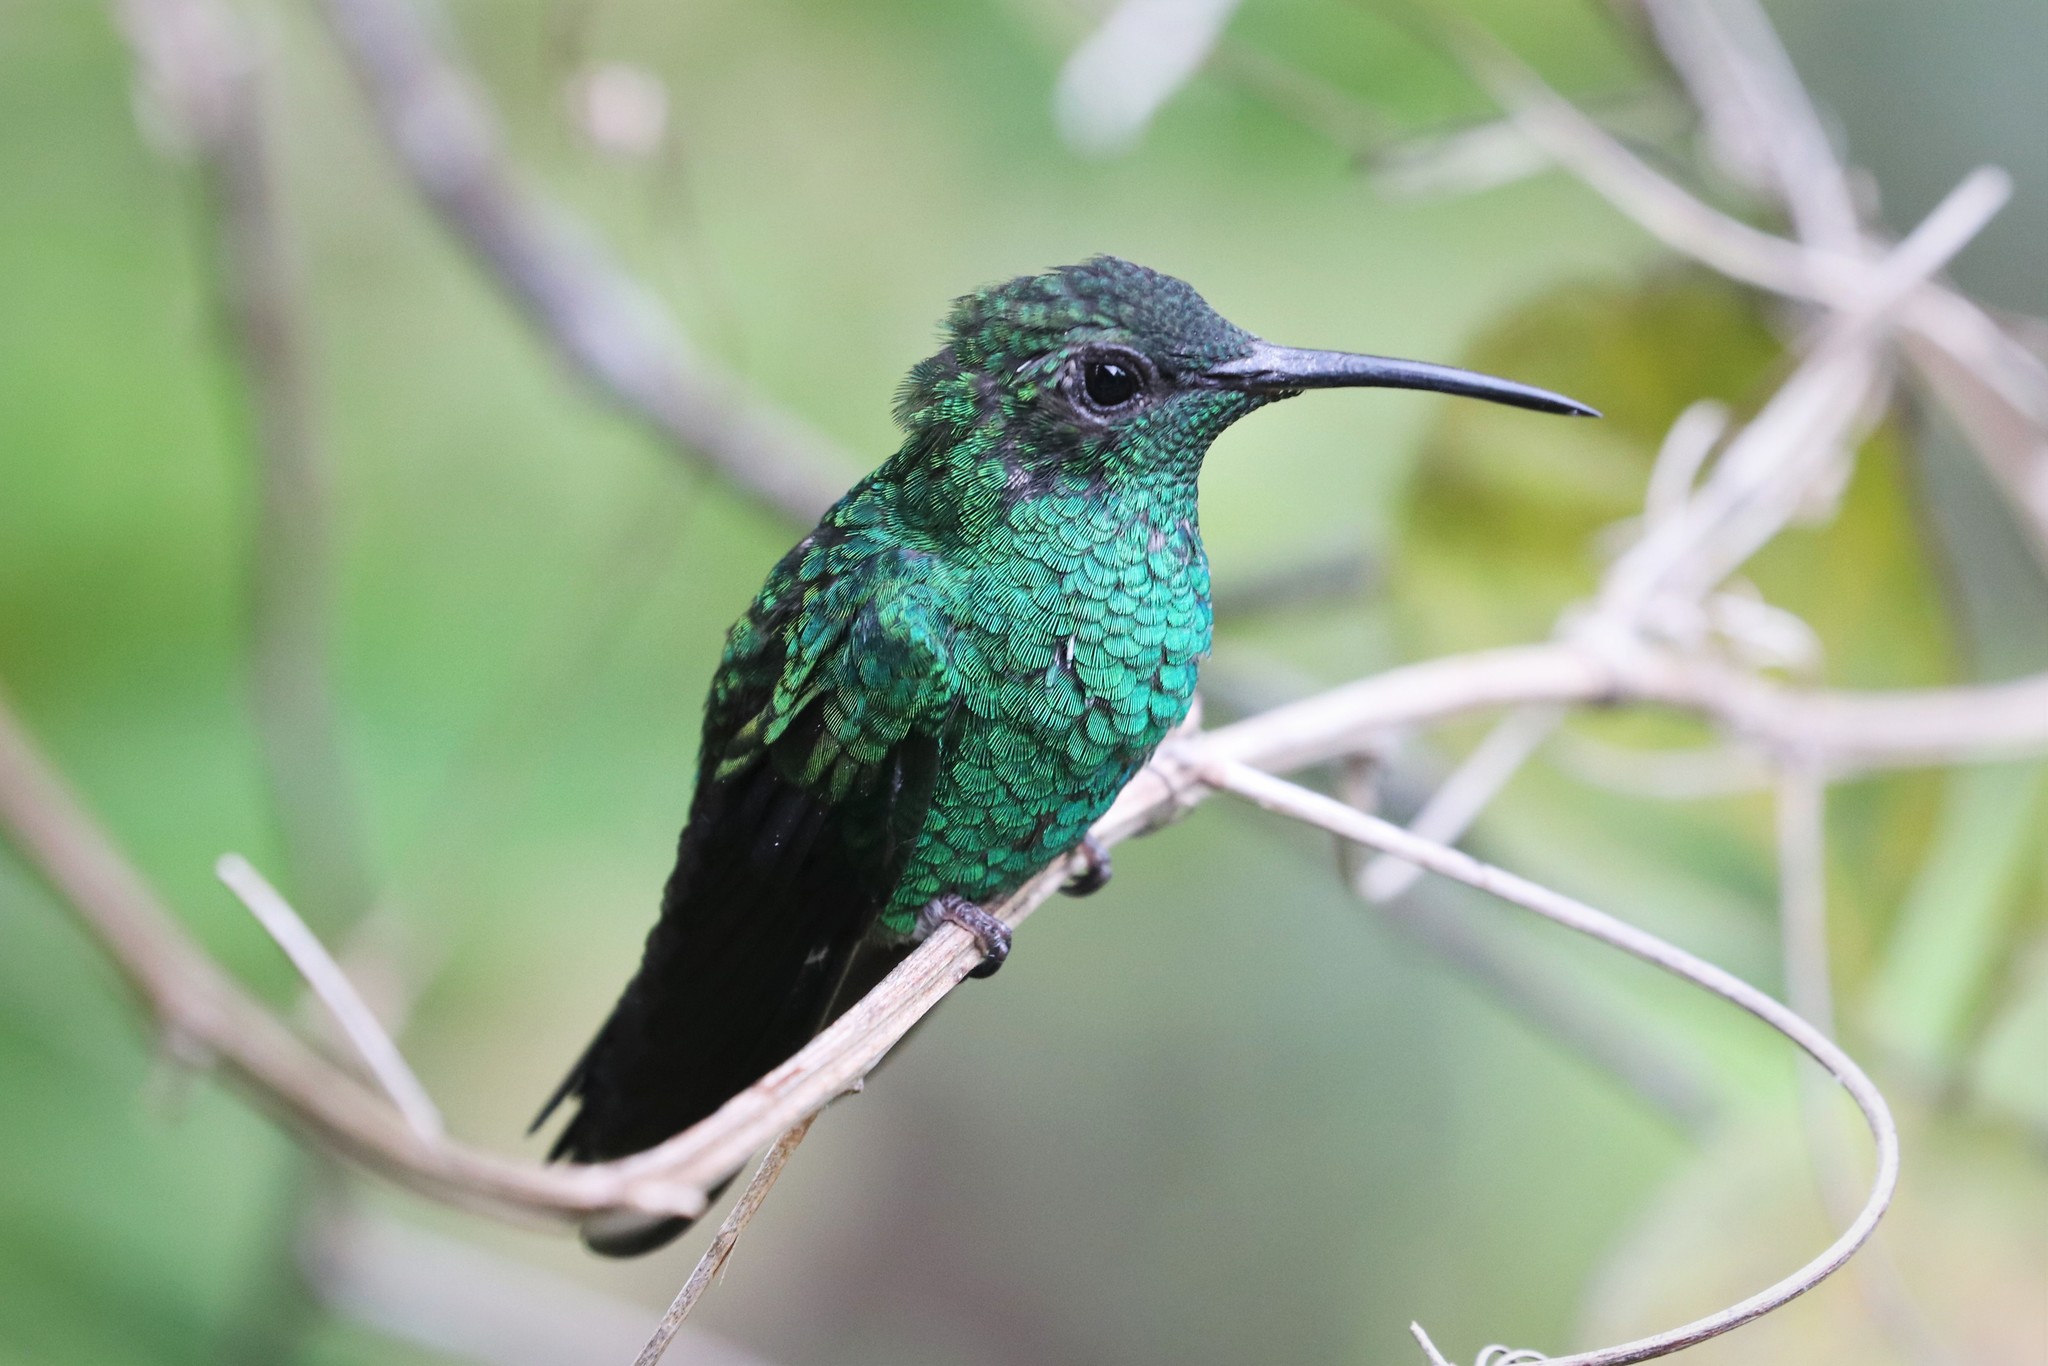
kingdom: Animalia
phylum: Chordata
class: Aves
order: Apodiformes
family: Trochilidae
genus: Chalybura
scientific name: Chalybura buffonii
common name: White-vented plumeleteer
